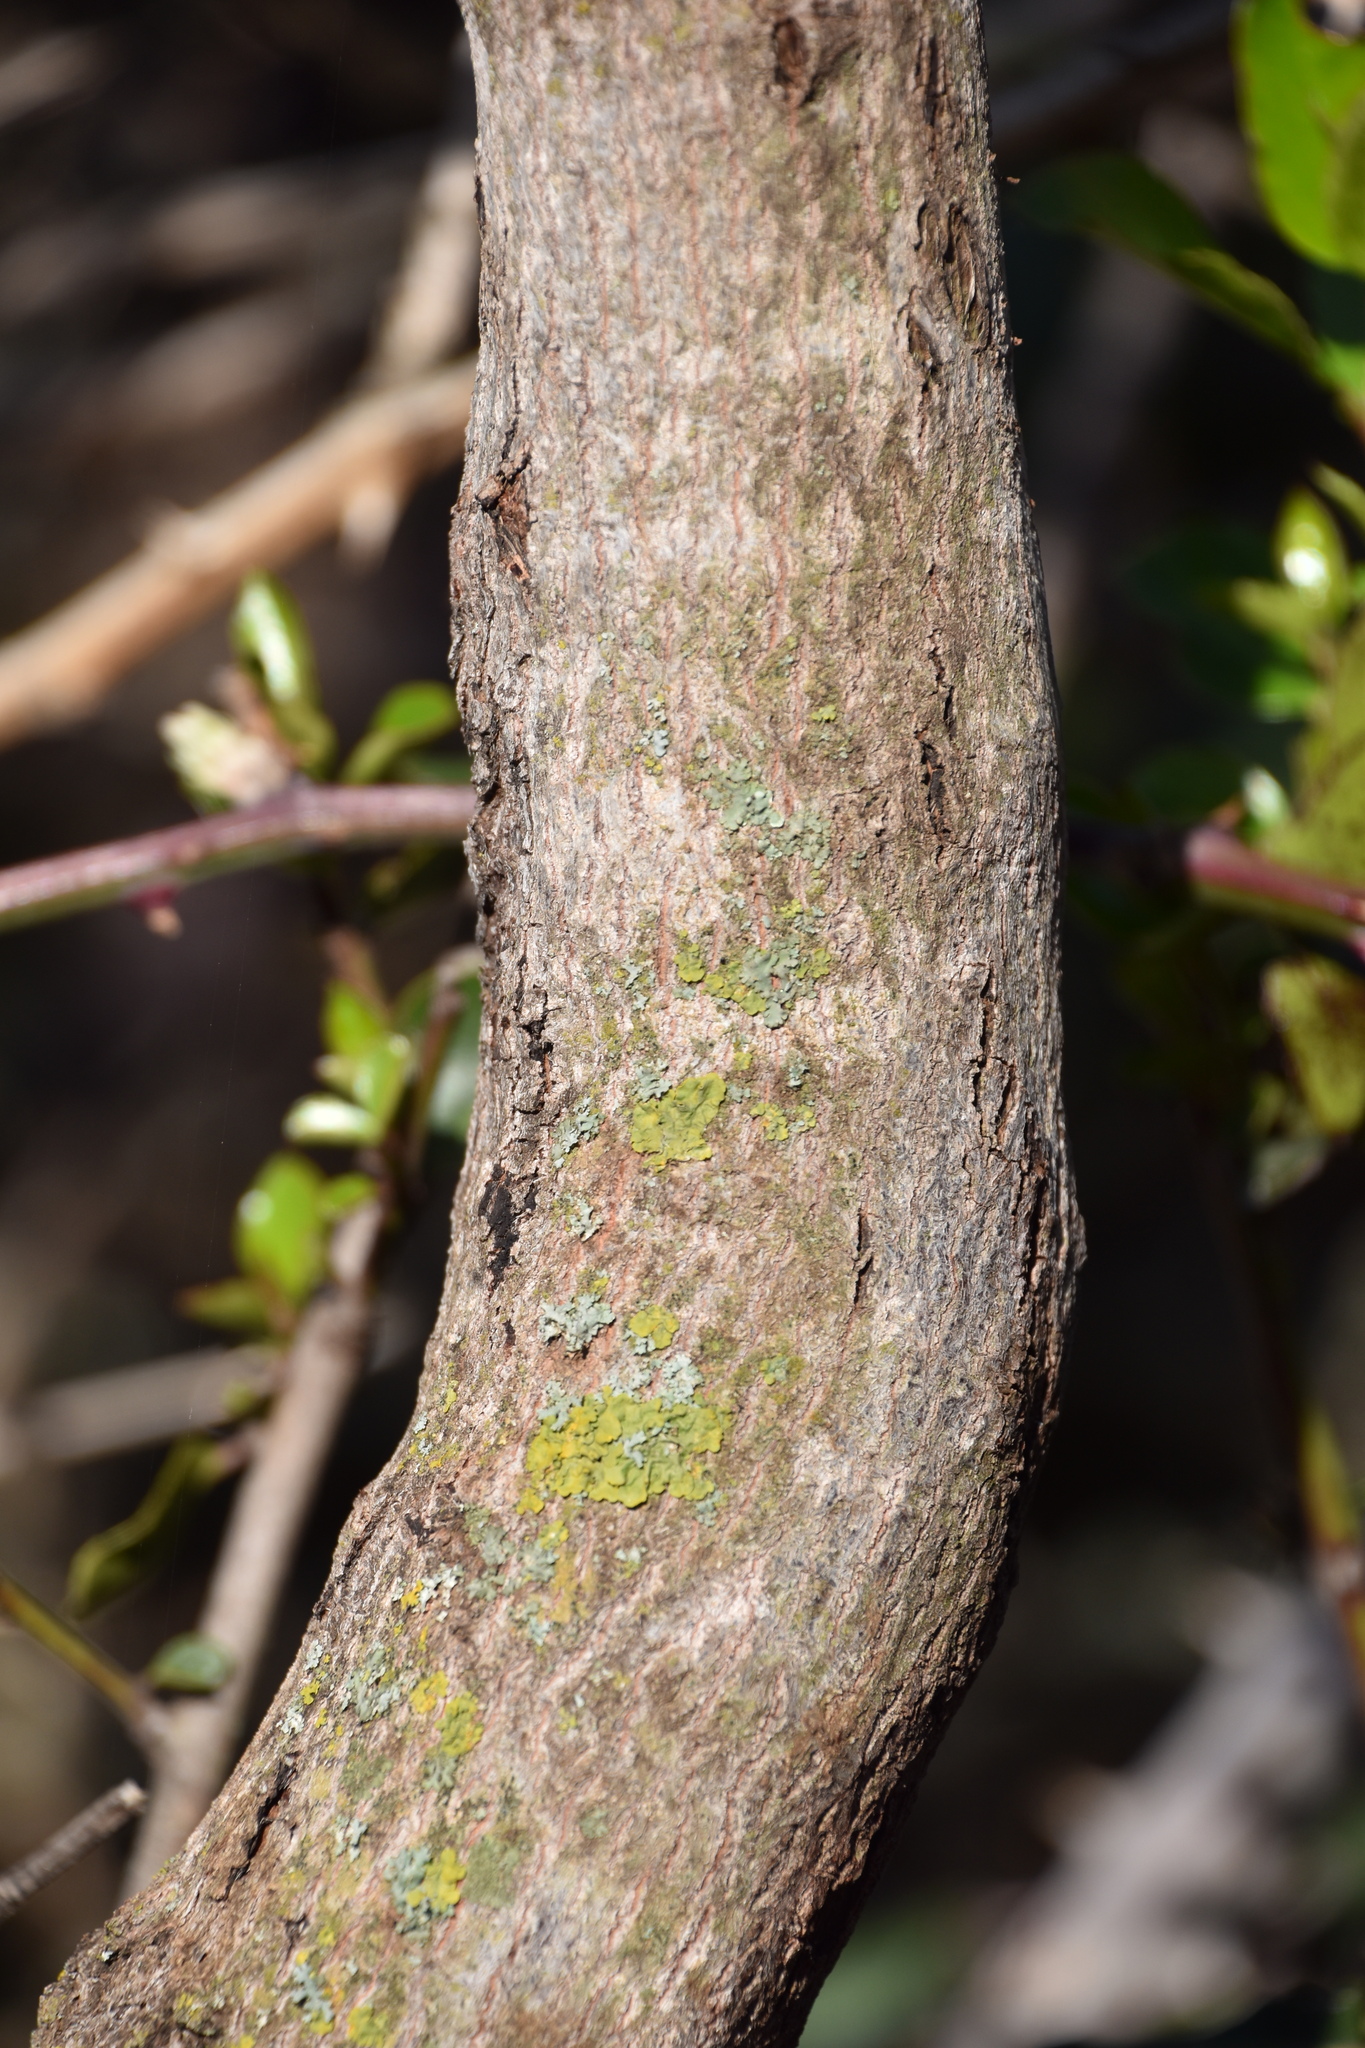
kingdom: Plantae
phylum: Tracheophyta
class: Magnoliopsida
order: Rosales
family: Rhamnaceae
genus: Rhamnus
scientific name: Rhamnus alaternus
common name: Mediterranean buckthorn
